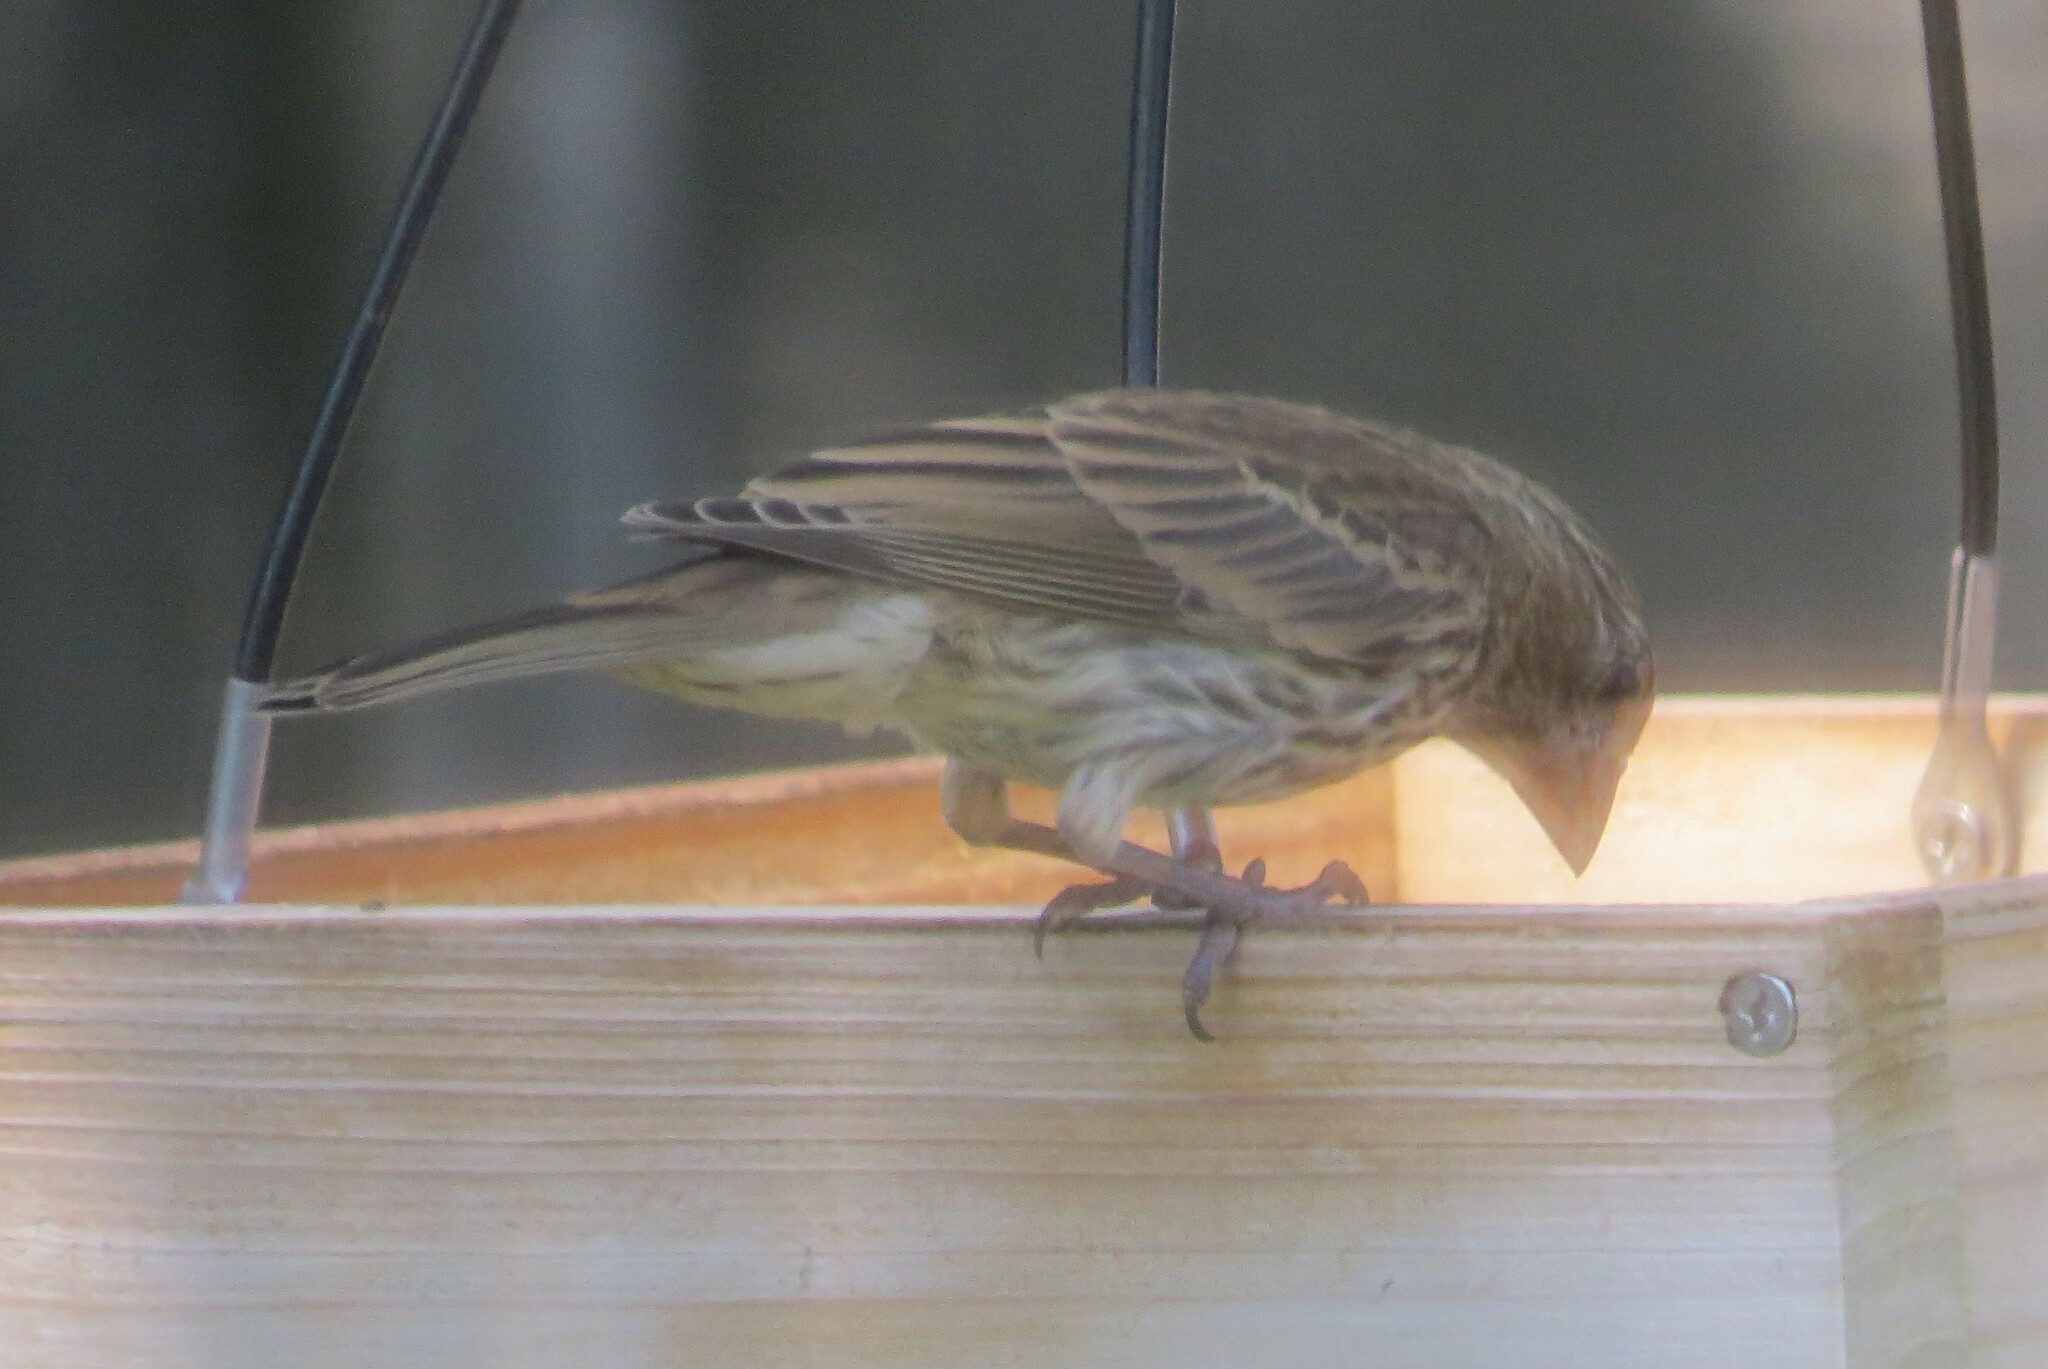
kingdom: Animalia
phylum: Chordata
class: Aves
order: Passeriformes
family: Fringillidae
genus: Haemorhous
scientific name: Haemorhous mexicanus
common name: House finch
